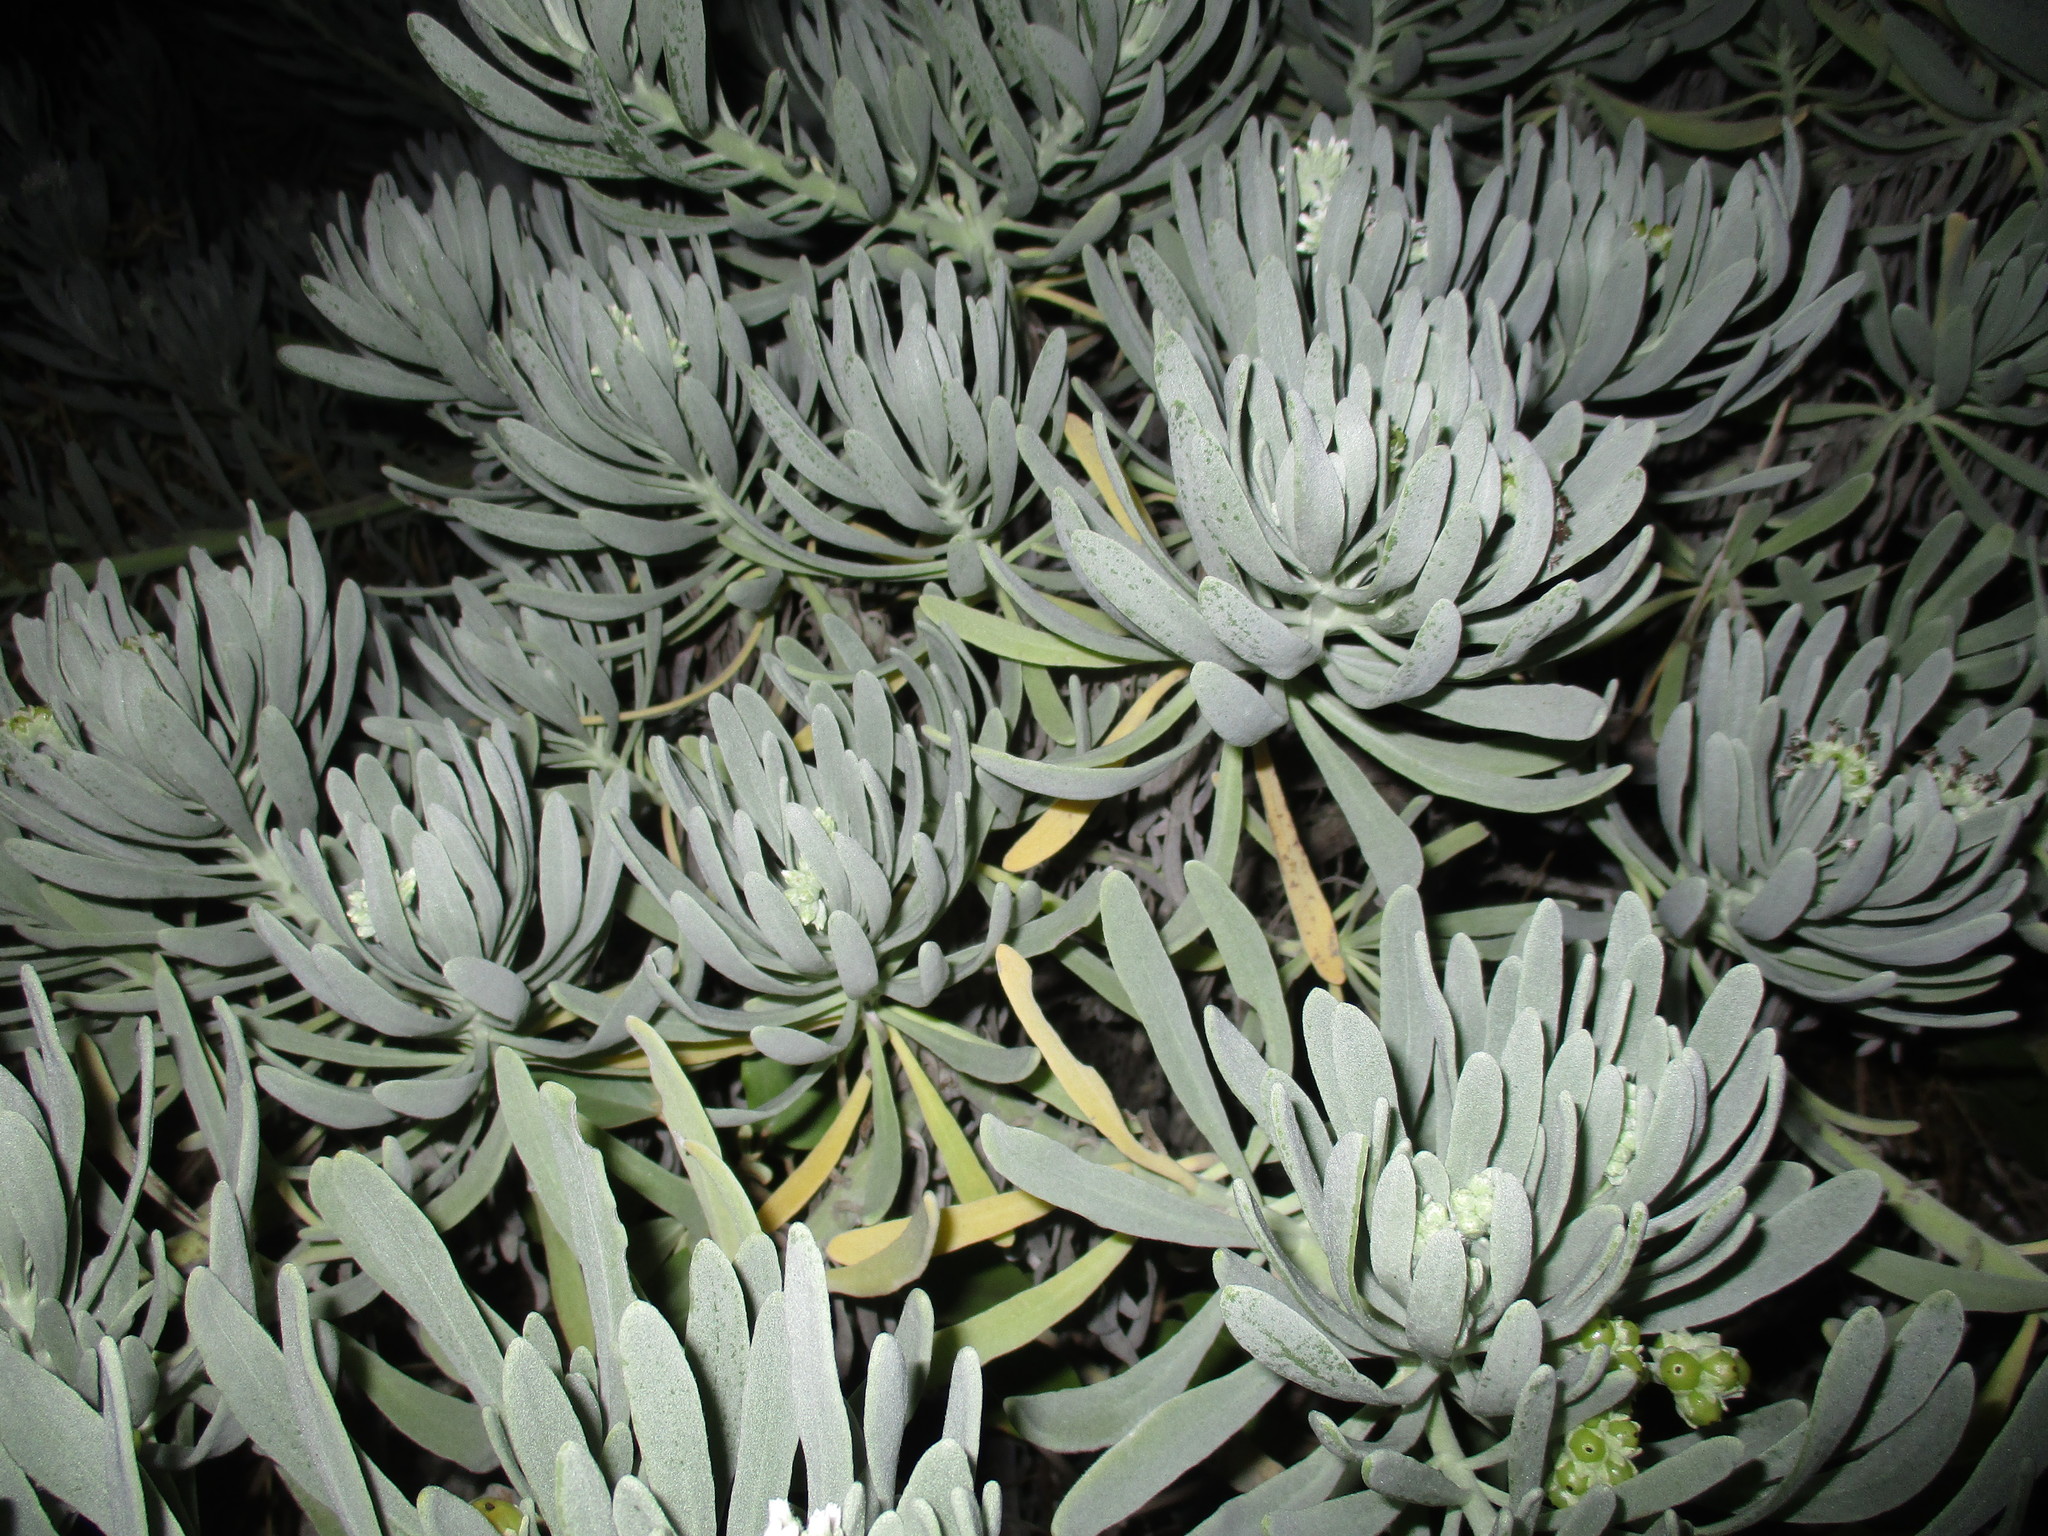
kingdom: Plantae
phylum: Tracheophyta
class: Magnoliopsida
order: Boraginales
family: Heliotropiaceae
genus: Tournefortia
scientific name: Tournefortia gnaphalodes
